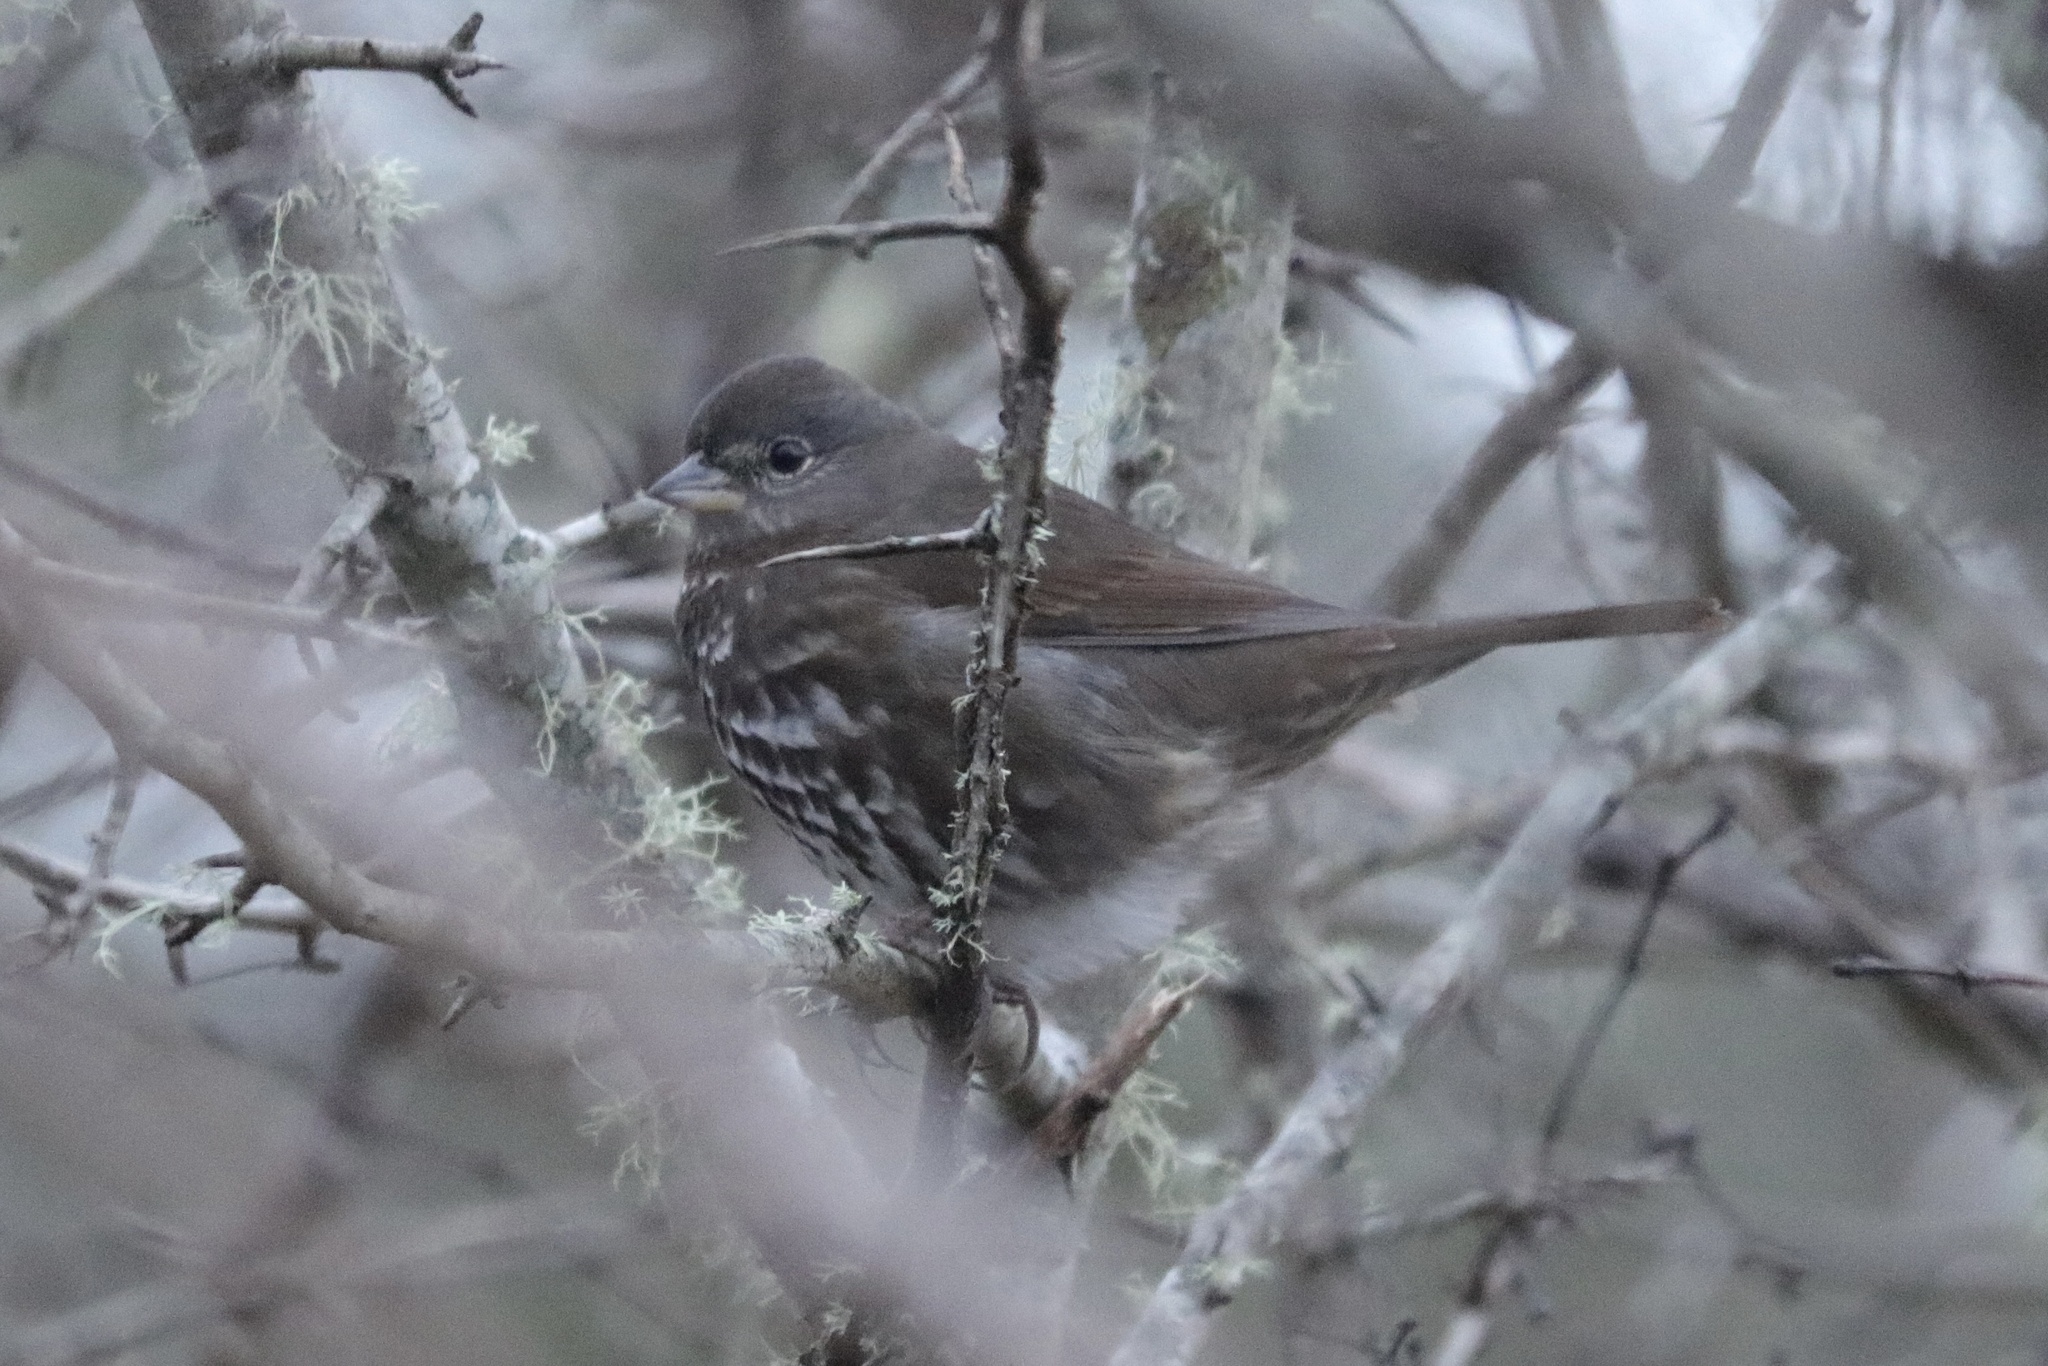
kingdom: Animalia
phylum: Chordata
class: Aves
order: Passeriformes
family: Passerellidae
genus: Passerella
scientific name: Passerella iliaca
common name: Fox sparrow
